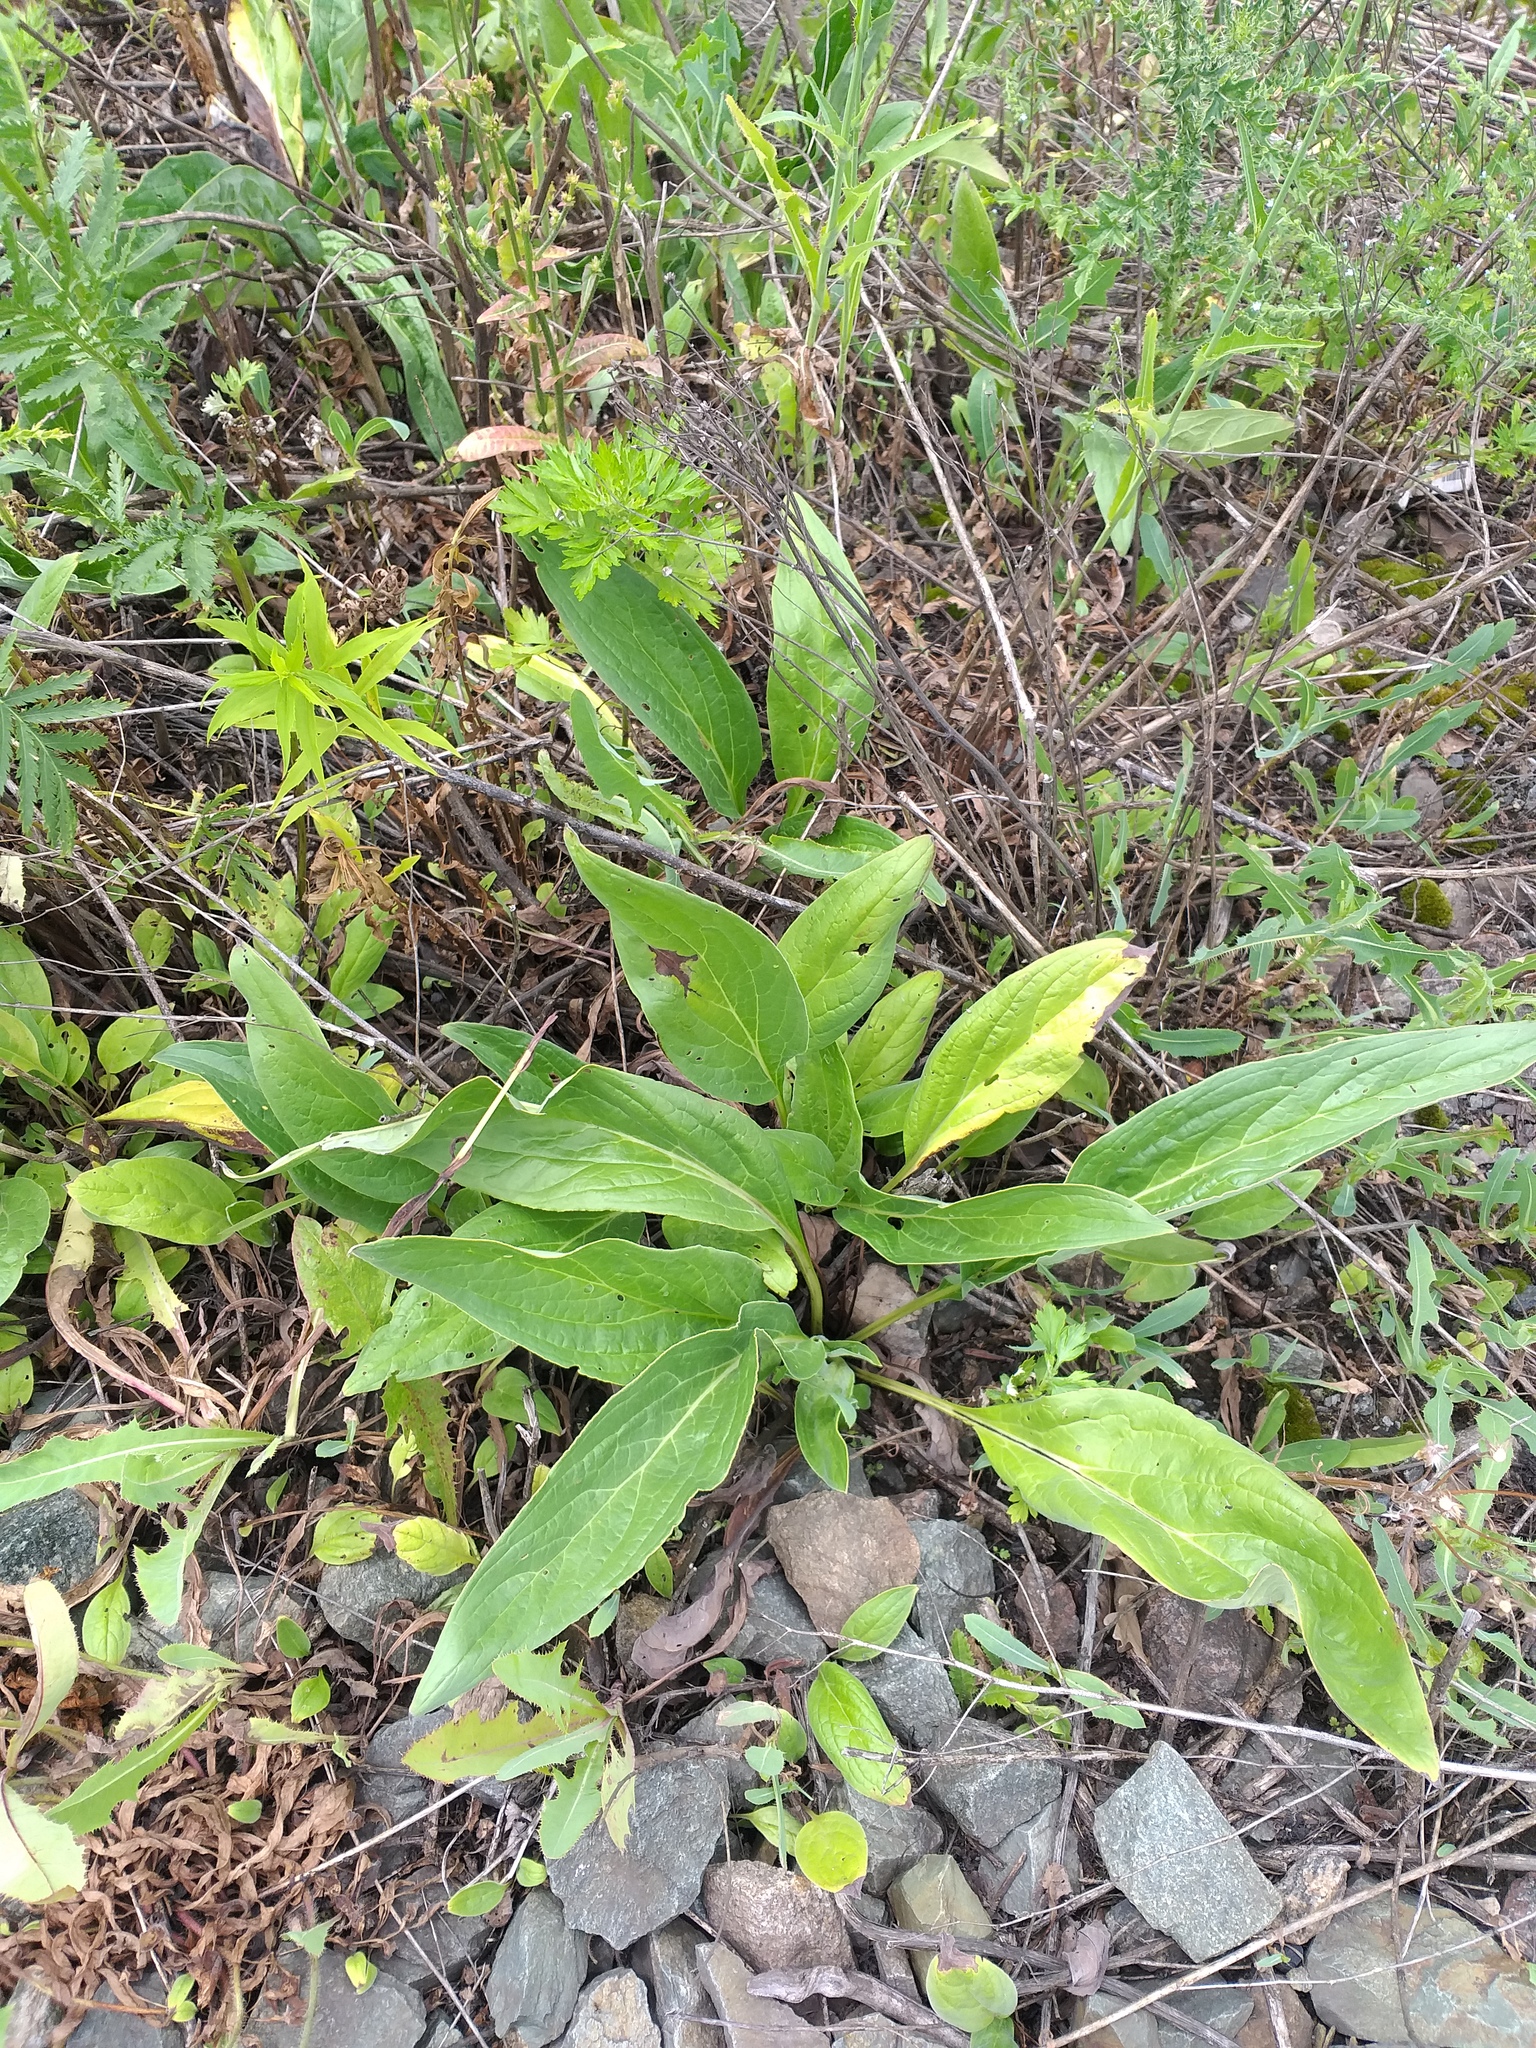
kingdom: Plantae
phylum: Tracheophyta
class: Magnoliopsida
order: Boraginales
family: Boraginaceae
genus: Cynoglossum
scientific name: Cynoglossum officinale
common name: Hound's-tongue
